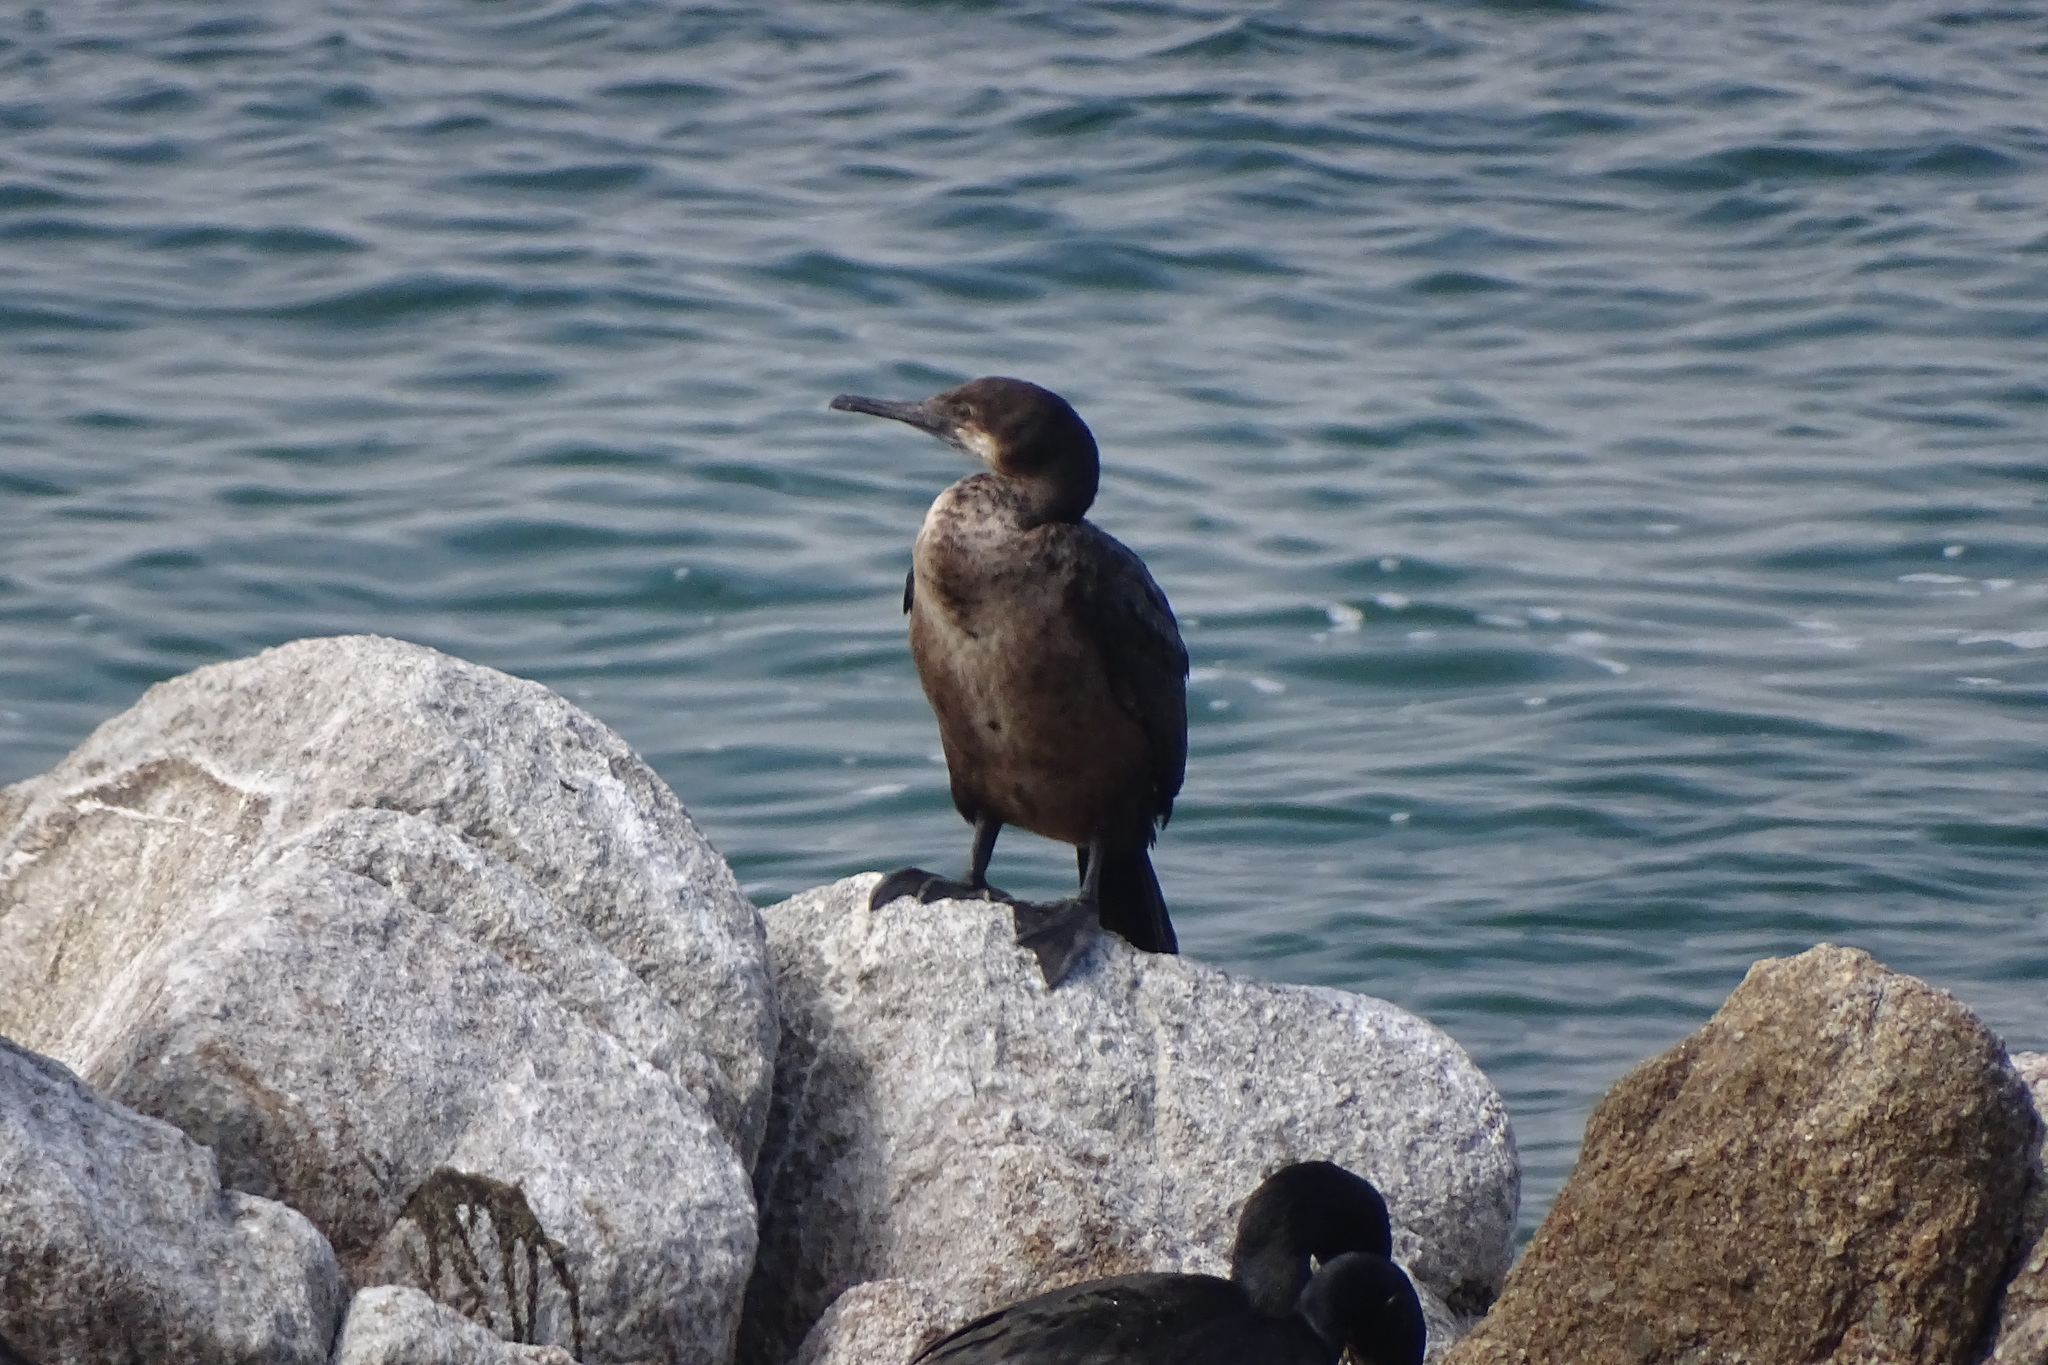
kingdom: Animalia
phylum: Chordata
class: Aves
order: Suliformes
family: Phalacrocoracidae
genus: Urile
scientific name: Urile penicillatus
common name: Brandt's cormorant
